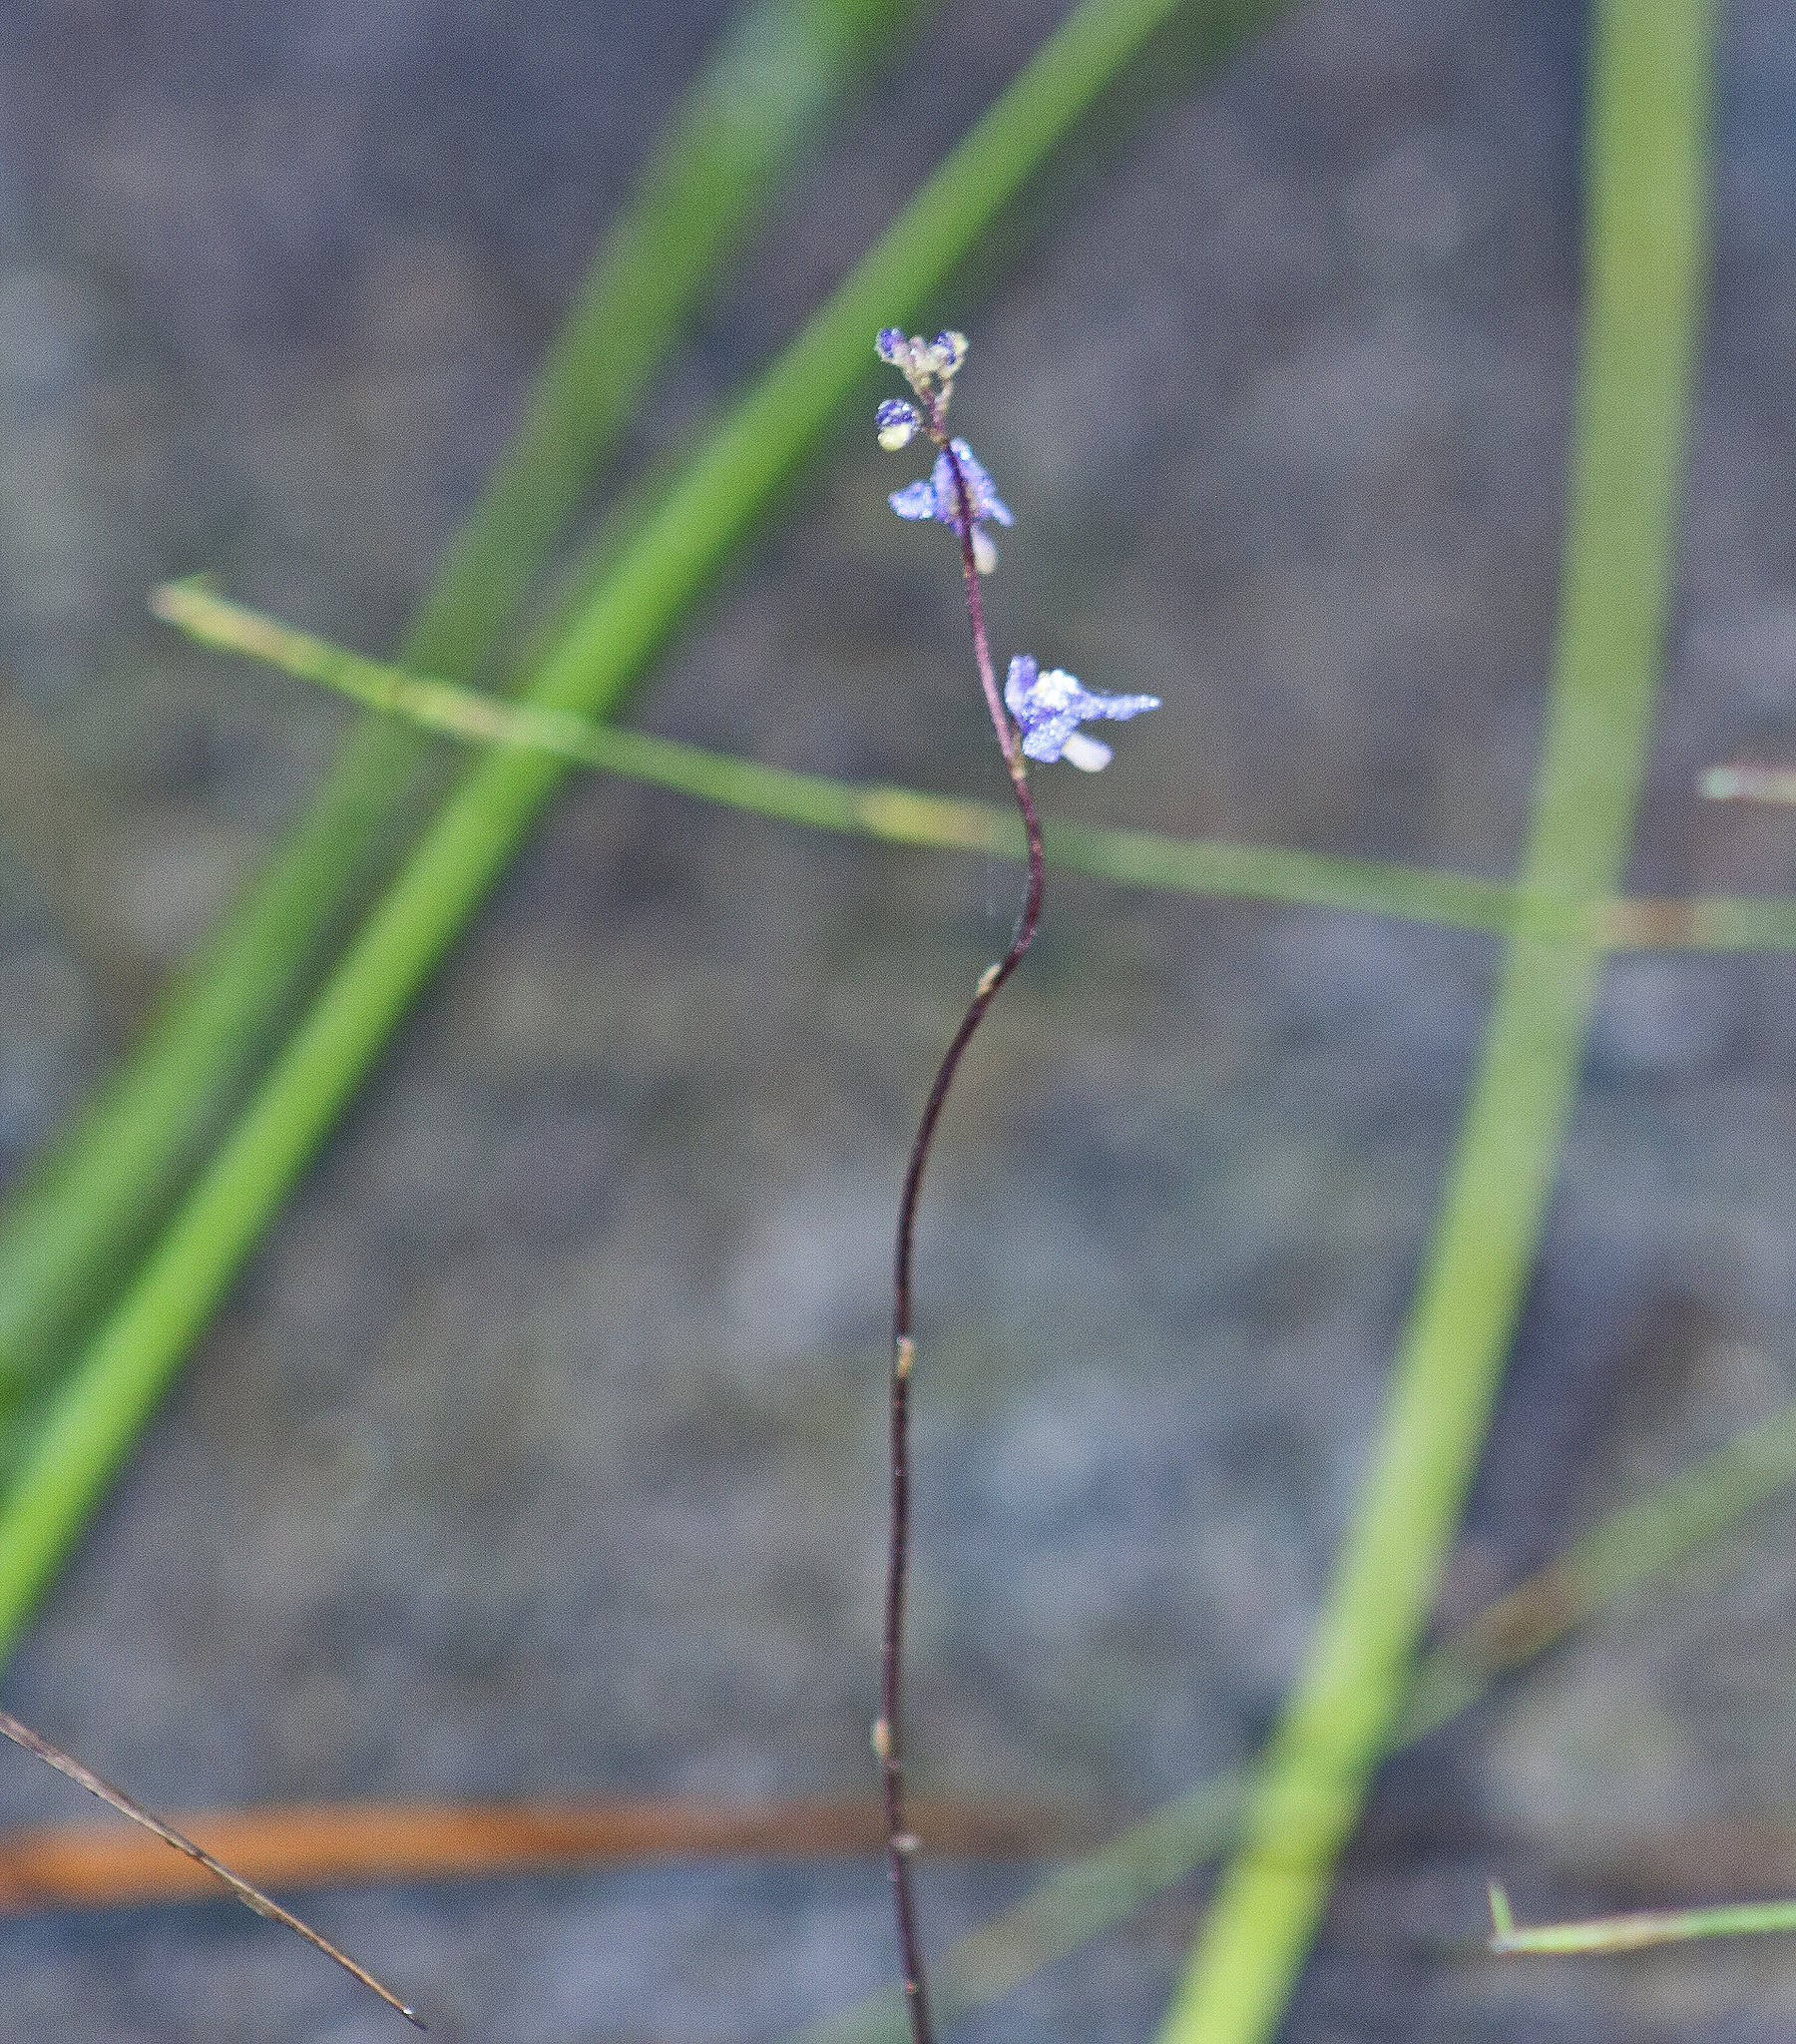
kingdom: Plantae
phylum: Tracheophyta
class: Magnoliopsida
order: Lamiales
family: Lentibulariaceae
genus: Utricularia
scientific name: Utricularia biloba
